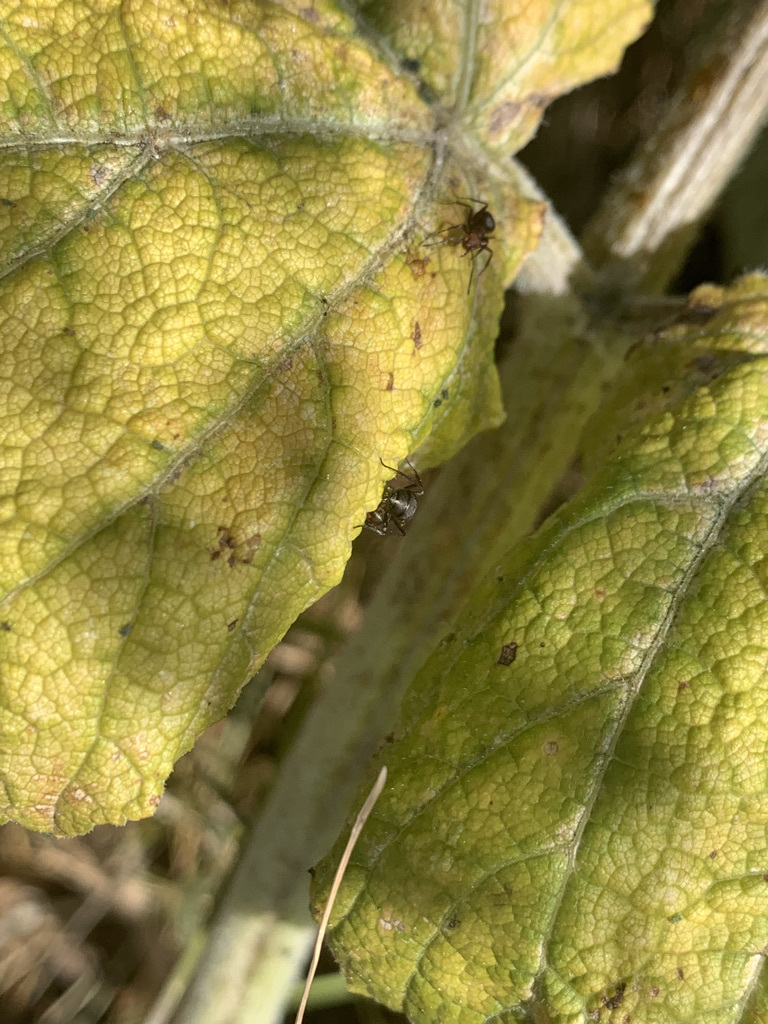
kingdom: Plantae
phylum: Tracheophyta
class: Magnoliopsida
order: Apiales
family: Apiaceae
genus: Heracleum
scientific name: Heracleum maximum
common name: American cow parsnip
